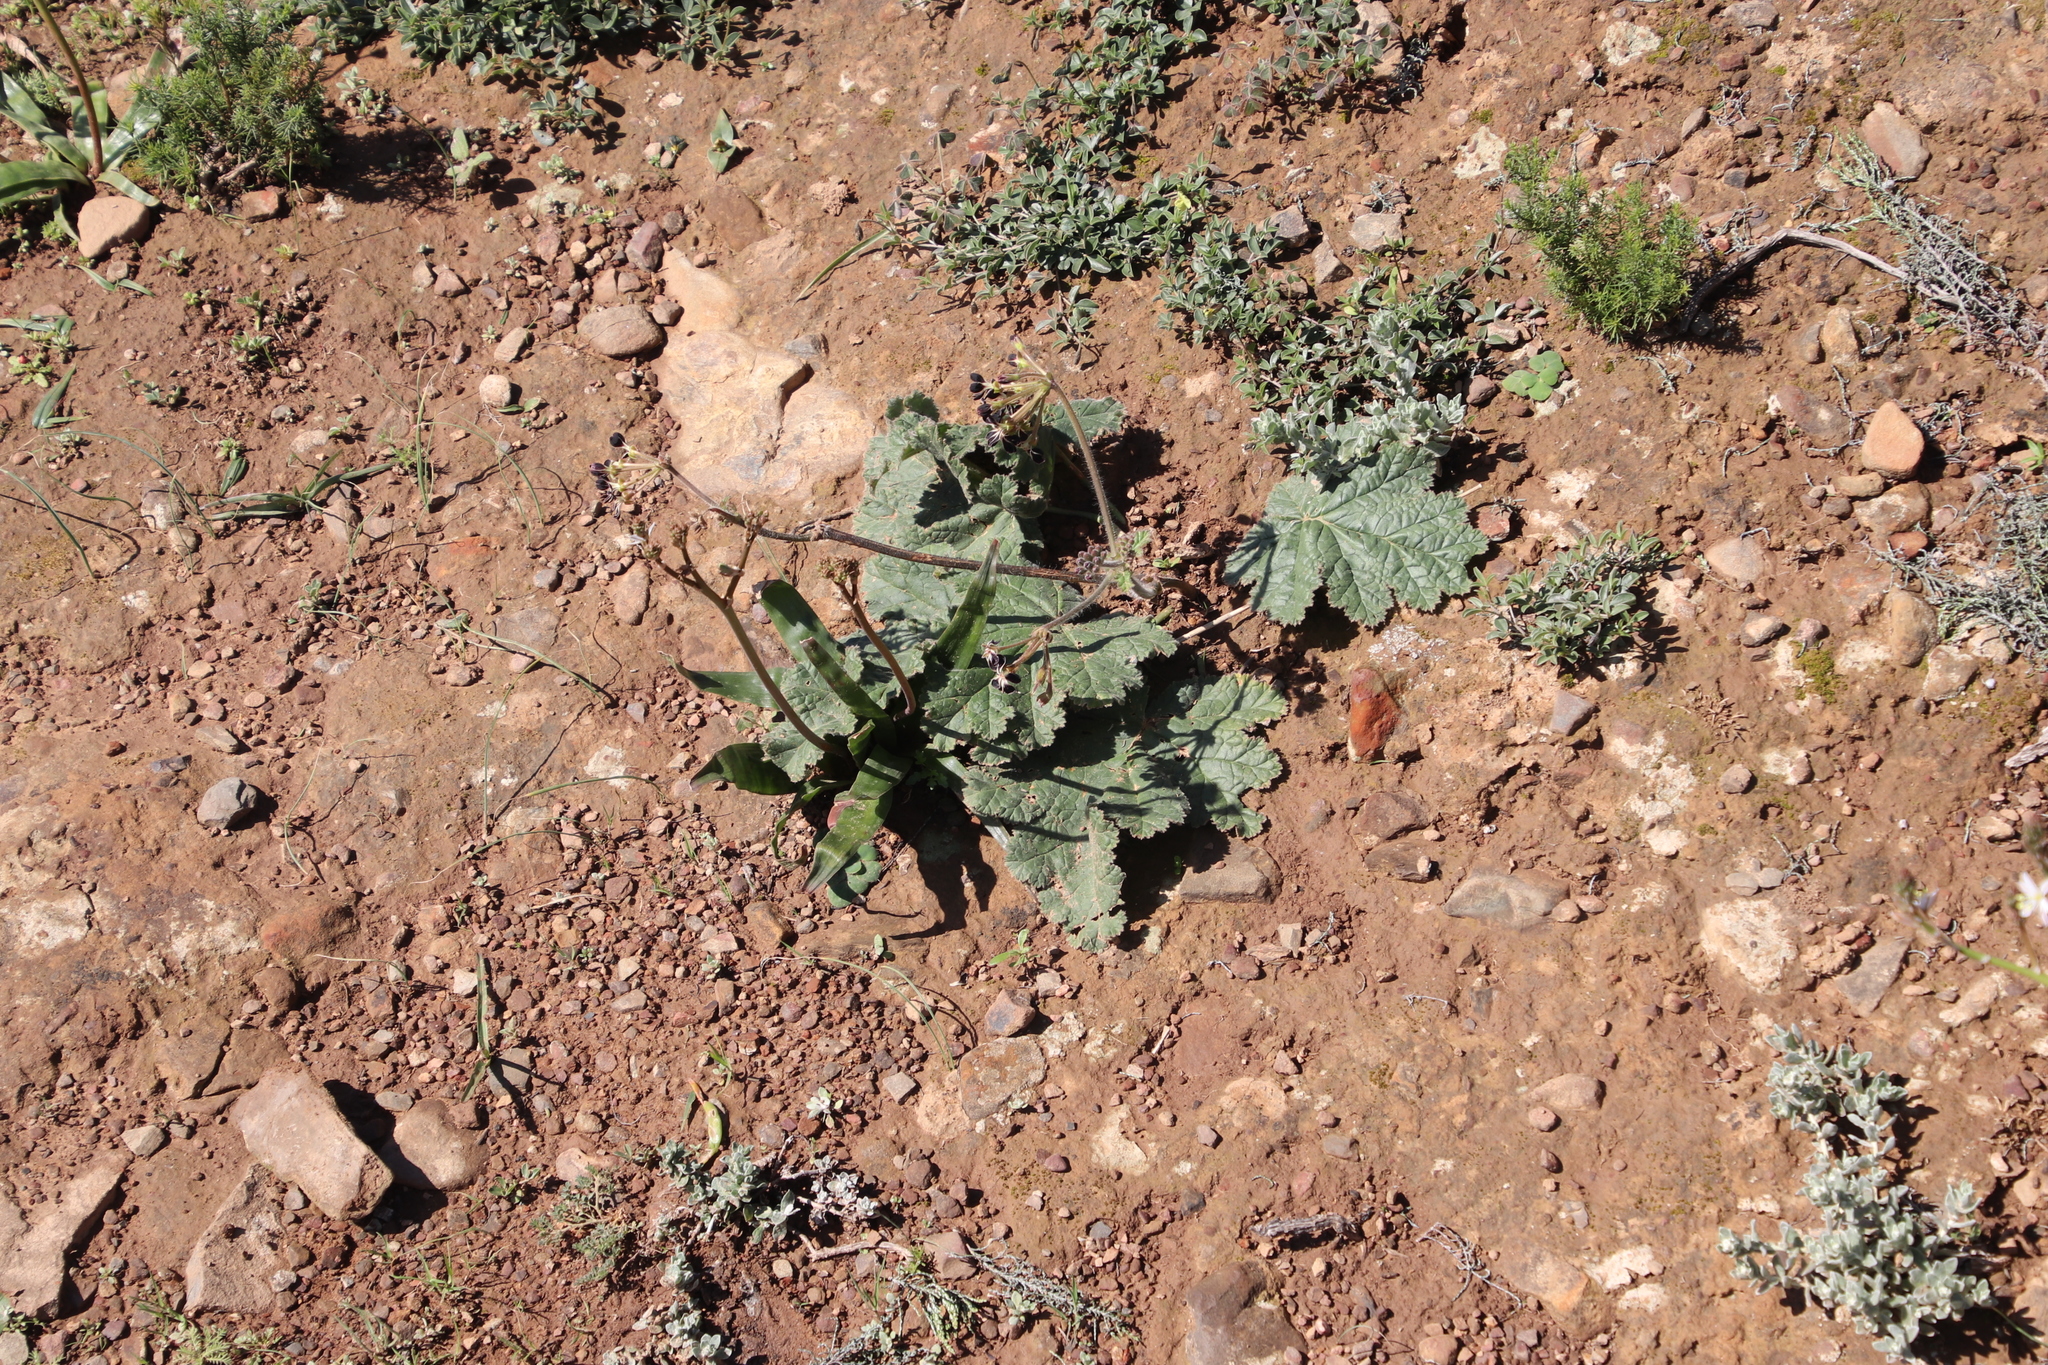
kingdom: Plantae
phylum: Tracheophyta
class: Magnoliopsida
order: Geraniales
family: Geraniaceae
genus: Pelargonium
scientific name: Pelargonium lobatum
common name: Vine-leaf pelargonium
